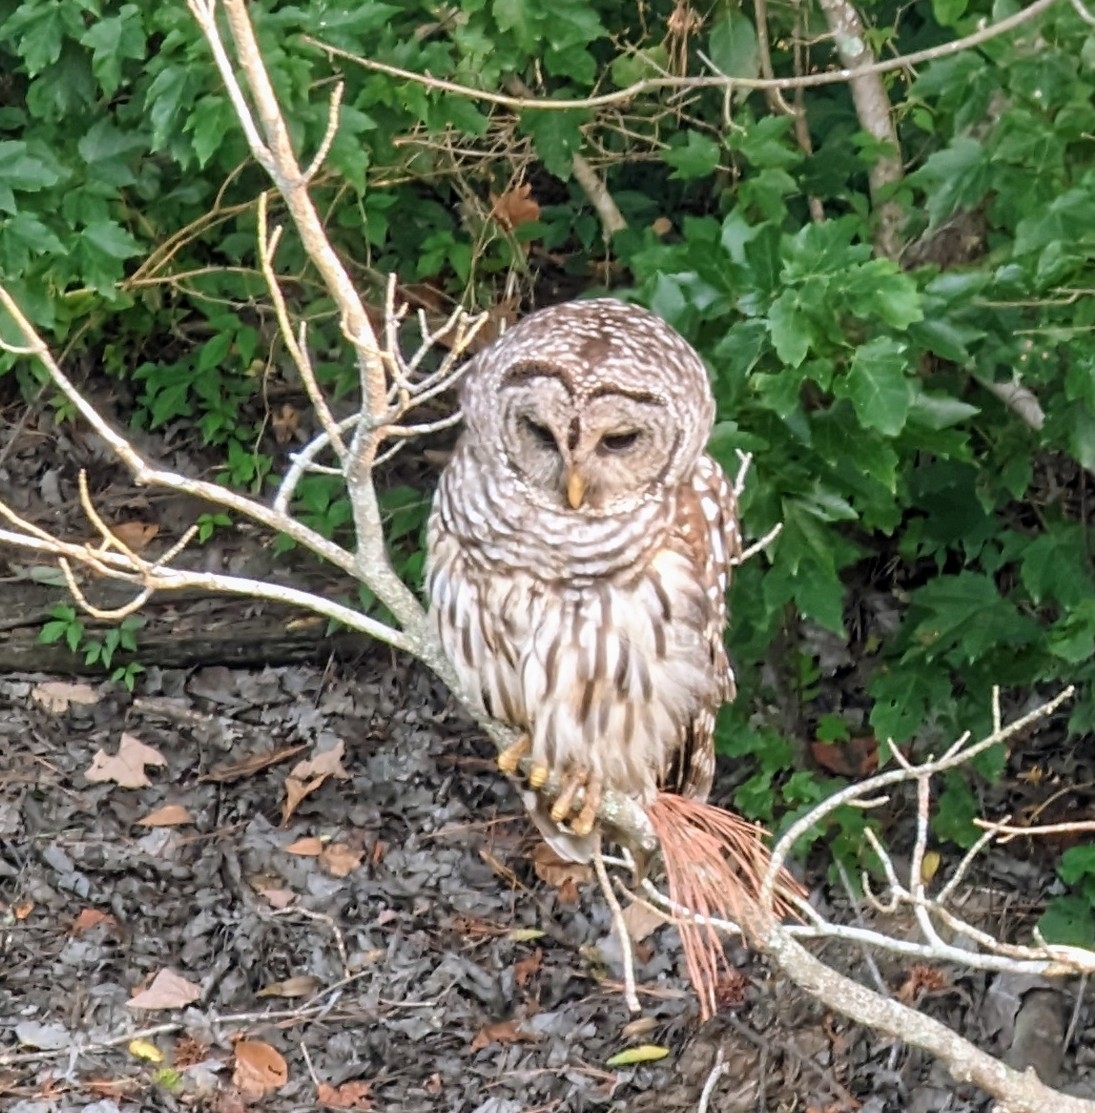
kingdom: Animalia
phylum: Chordata
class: Aves
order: Strigiformes
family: Strigidae
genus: Strix
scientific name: Strix varia
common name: Barred owl
